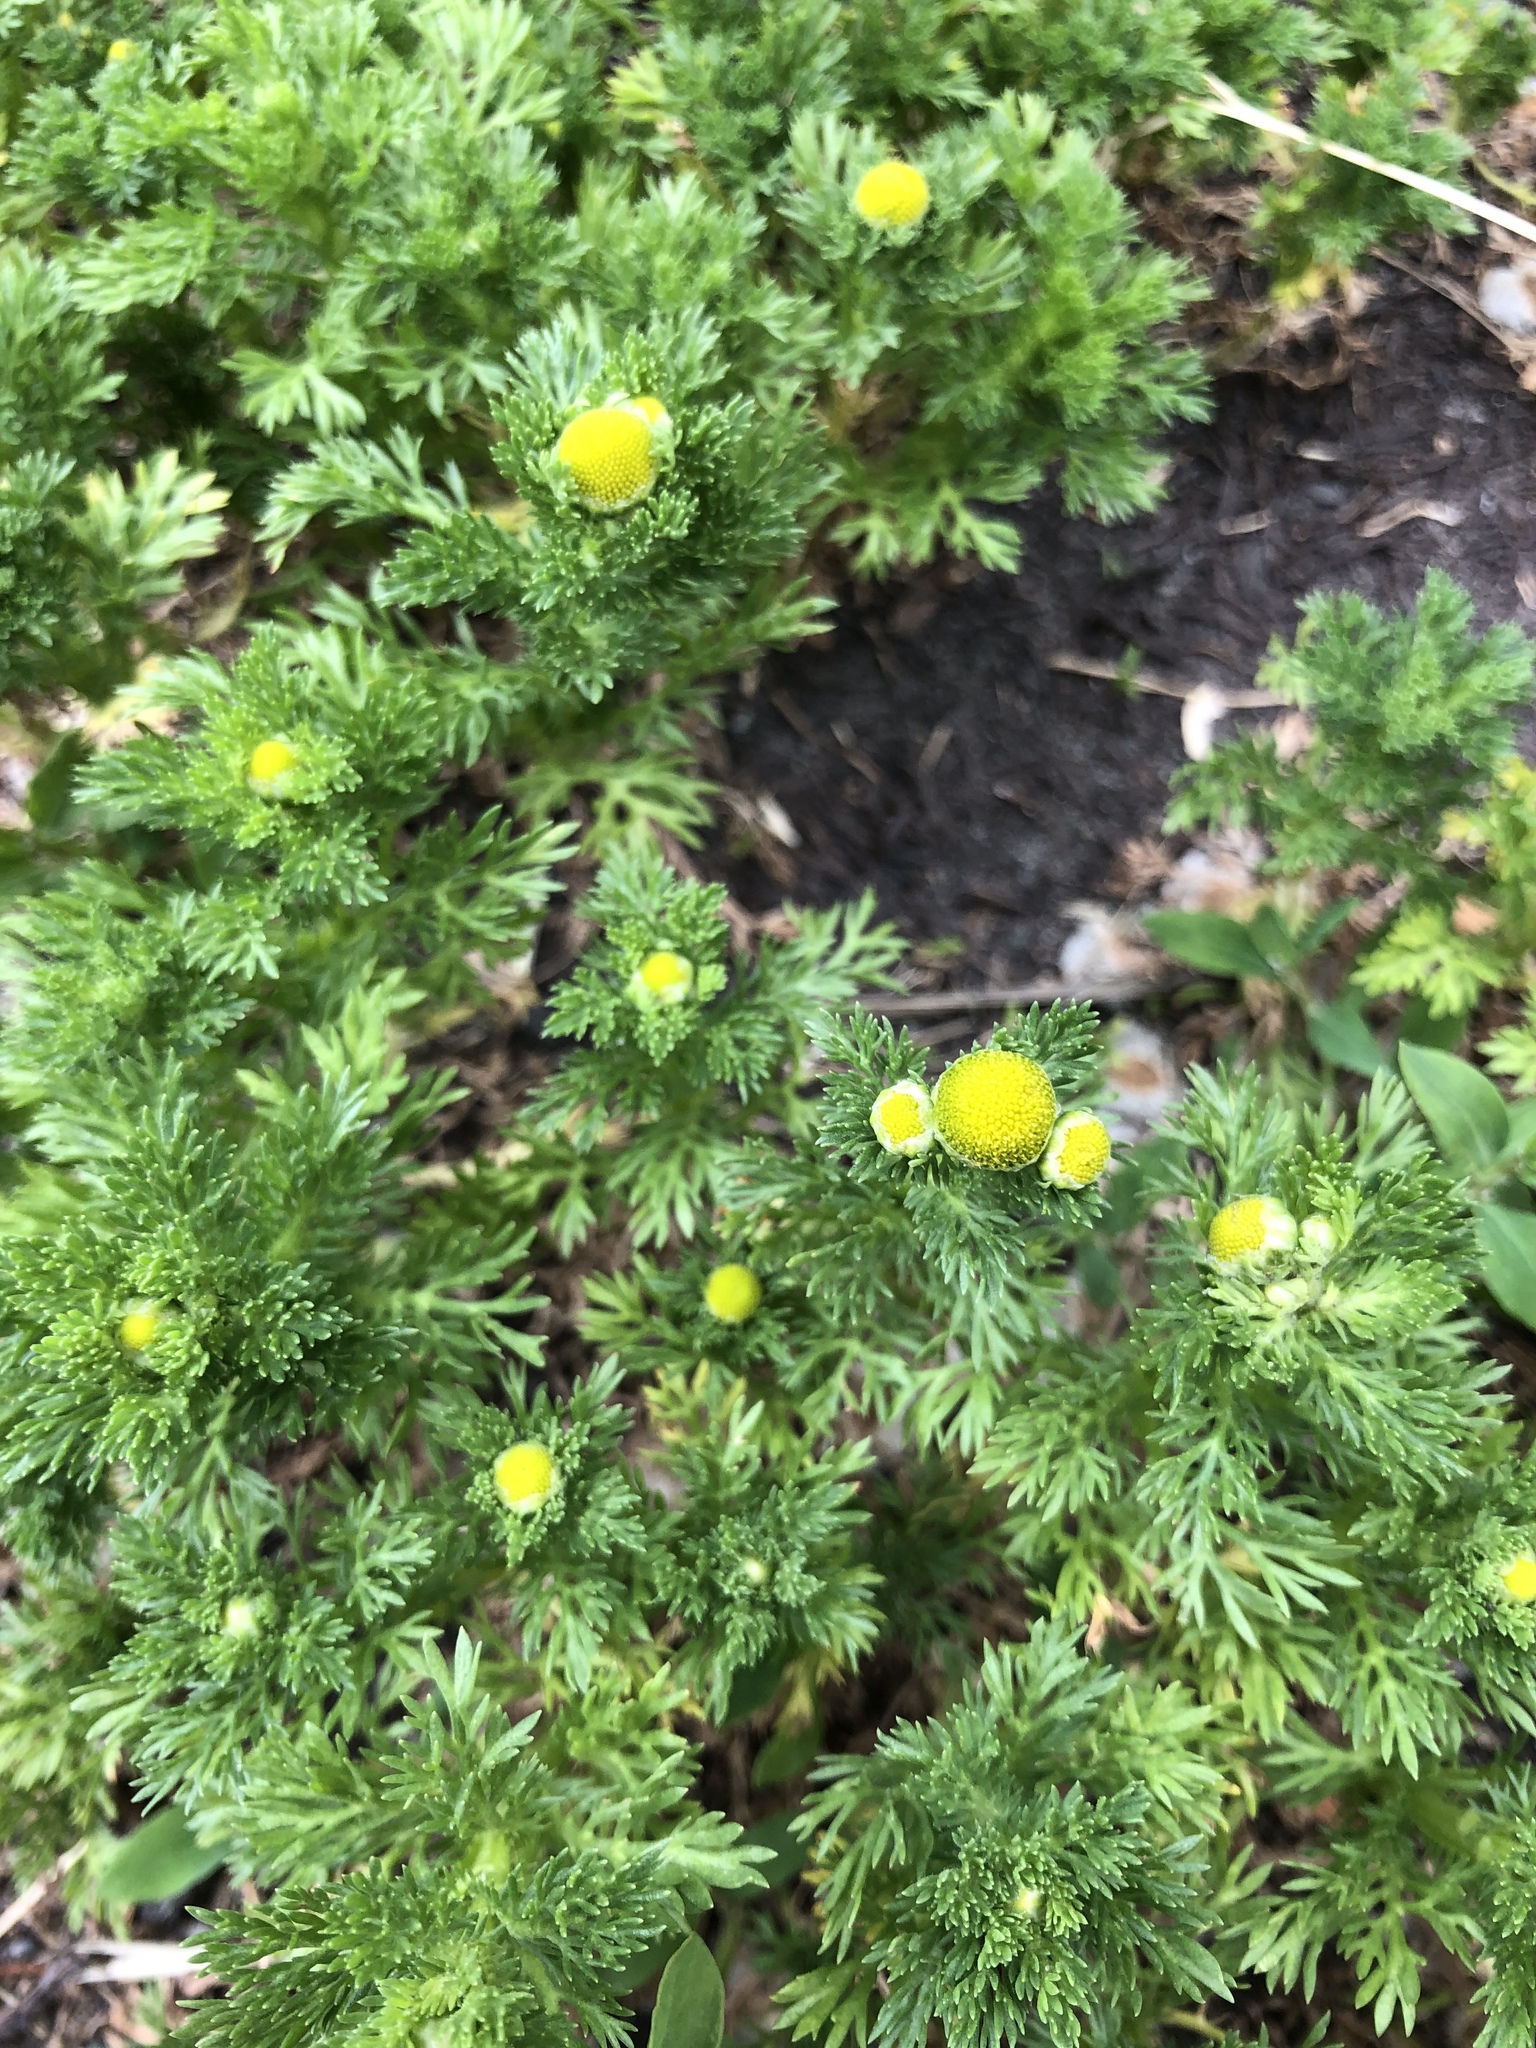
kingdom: Plantae
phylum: Tracheophyta
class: Magnoliopsida
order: Asterales
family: Asteraceae
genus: Matricaria
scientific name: Matricaria discoidea
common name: Disc mayweed
